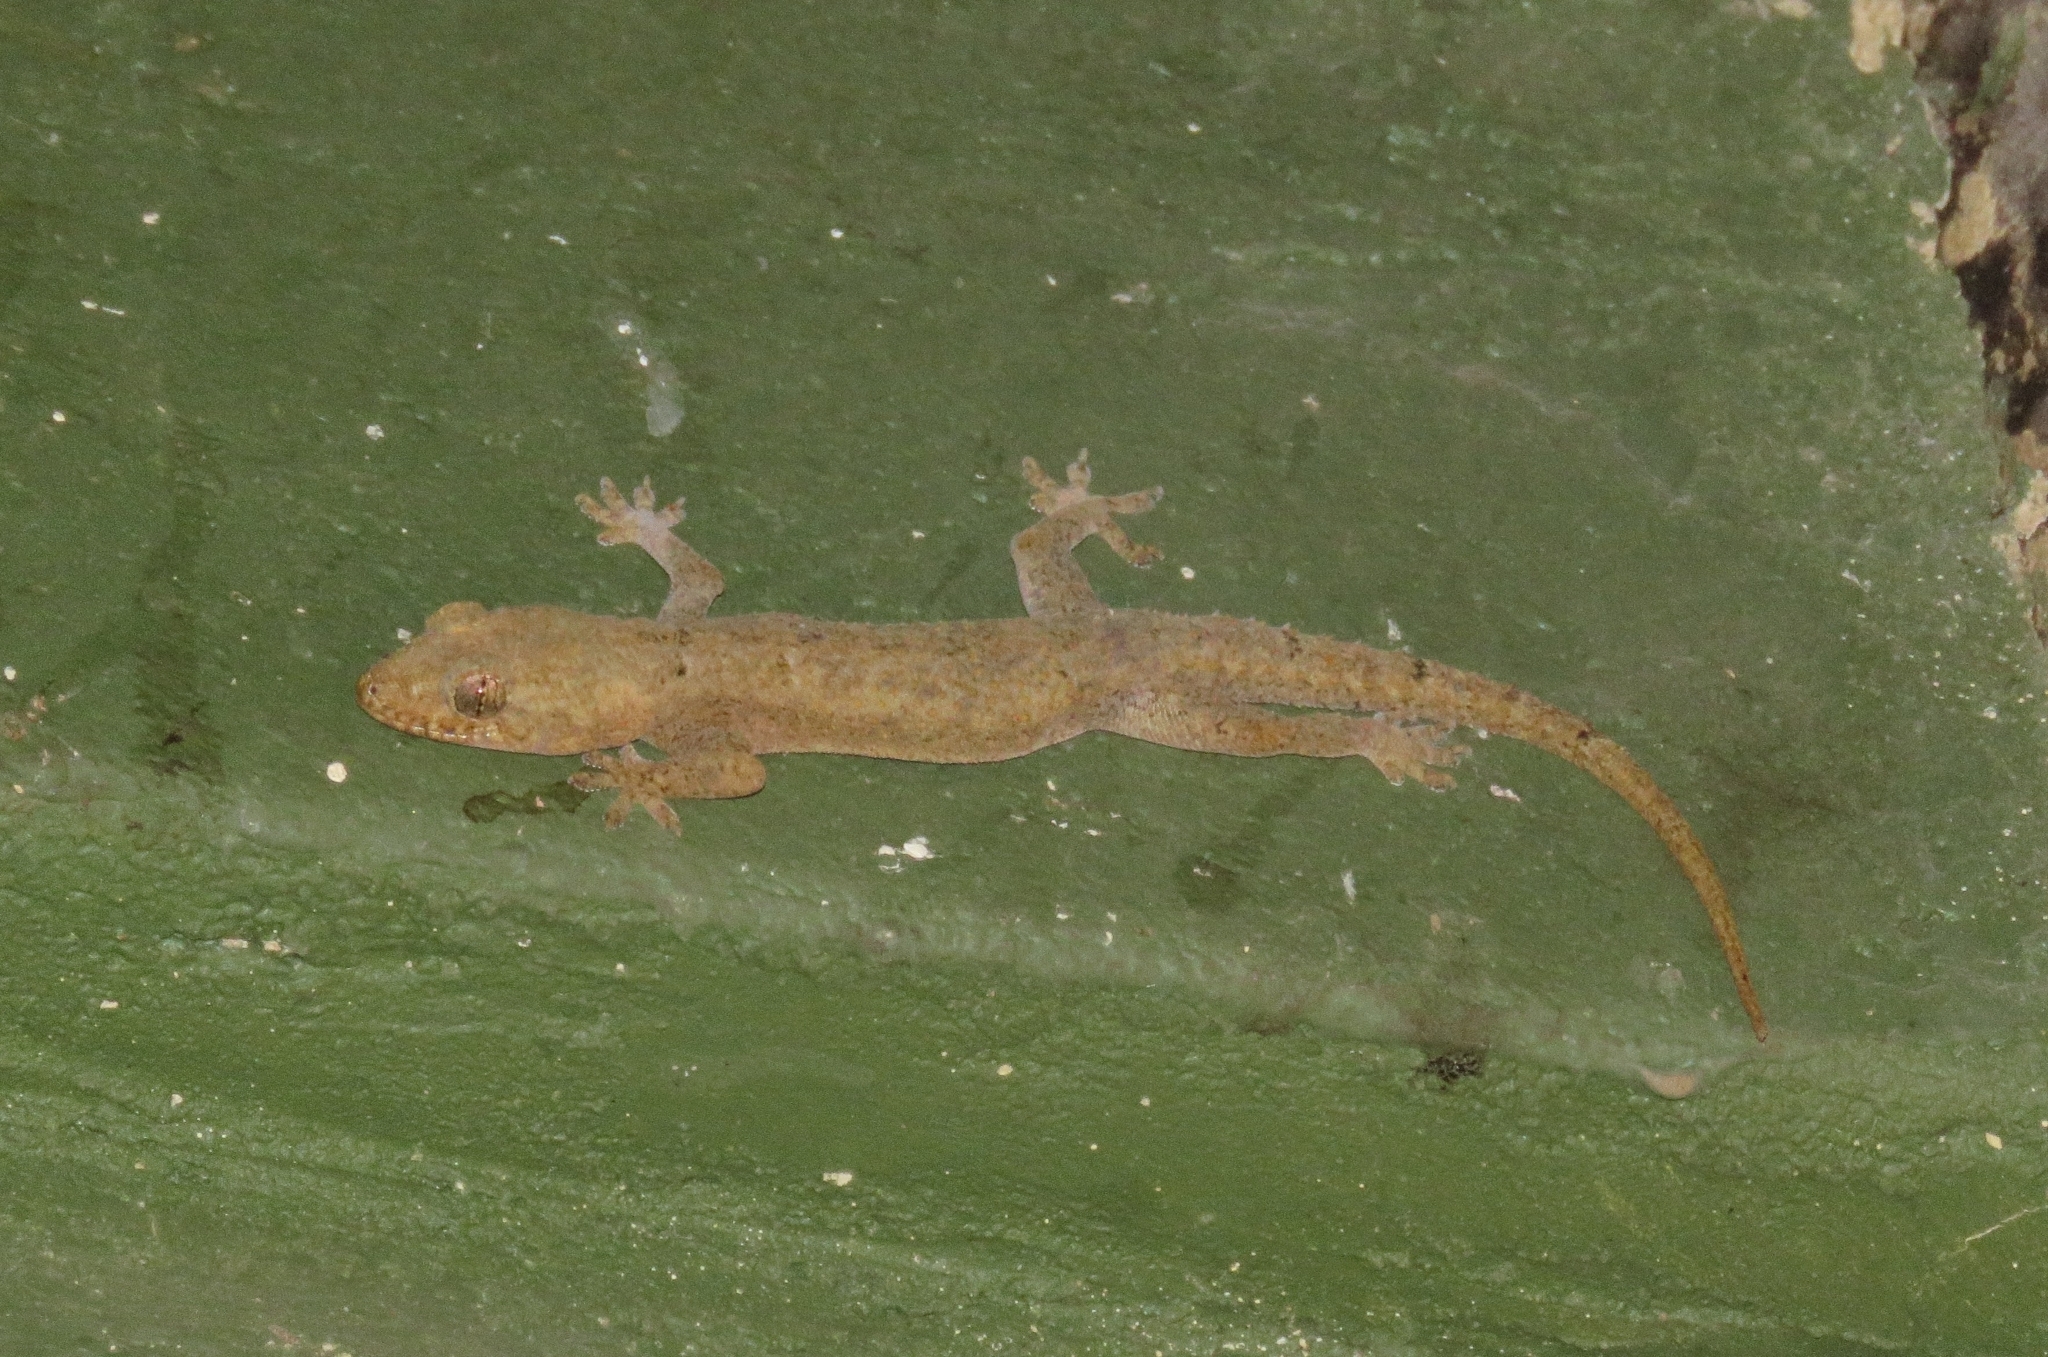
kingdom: Animalia
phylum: Chordata
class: Squamata
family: Gekkonidae
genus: Hemidactylus
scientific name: Hemidactylus mabouia
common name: House gecko
